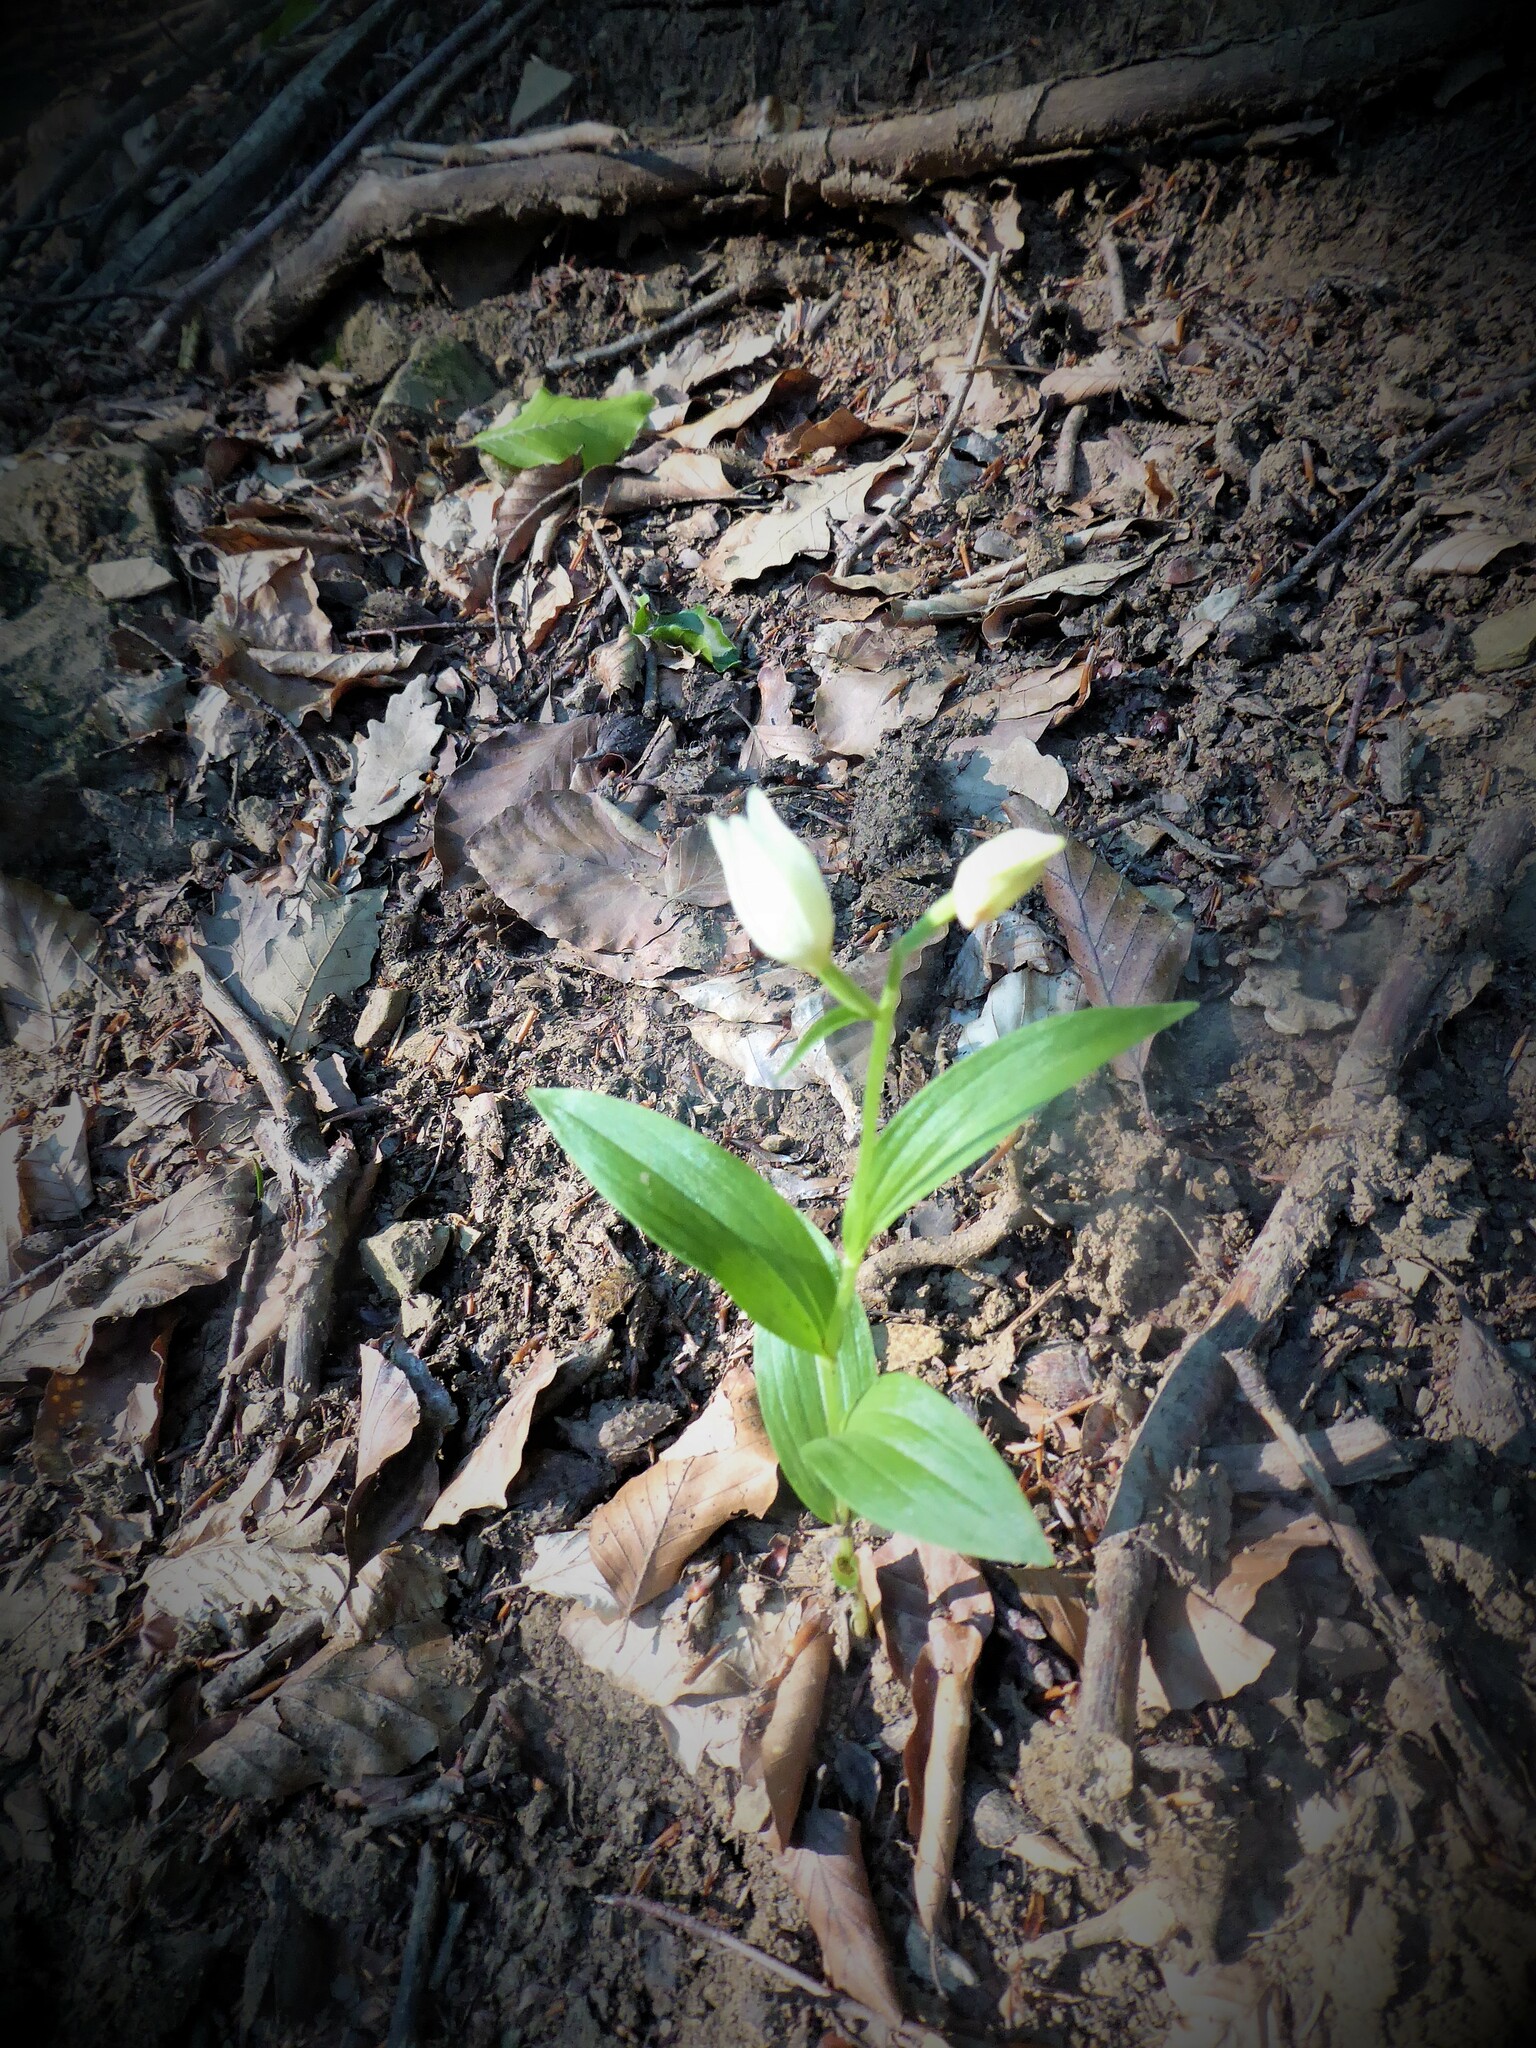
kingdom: Plantae
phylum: Tracheophyta
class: Liliopsida
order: Asparagales
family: Orchidaceae
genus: Cephalanthera
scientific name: Cephalanthera damasonium
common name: White helleborine
